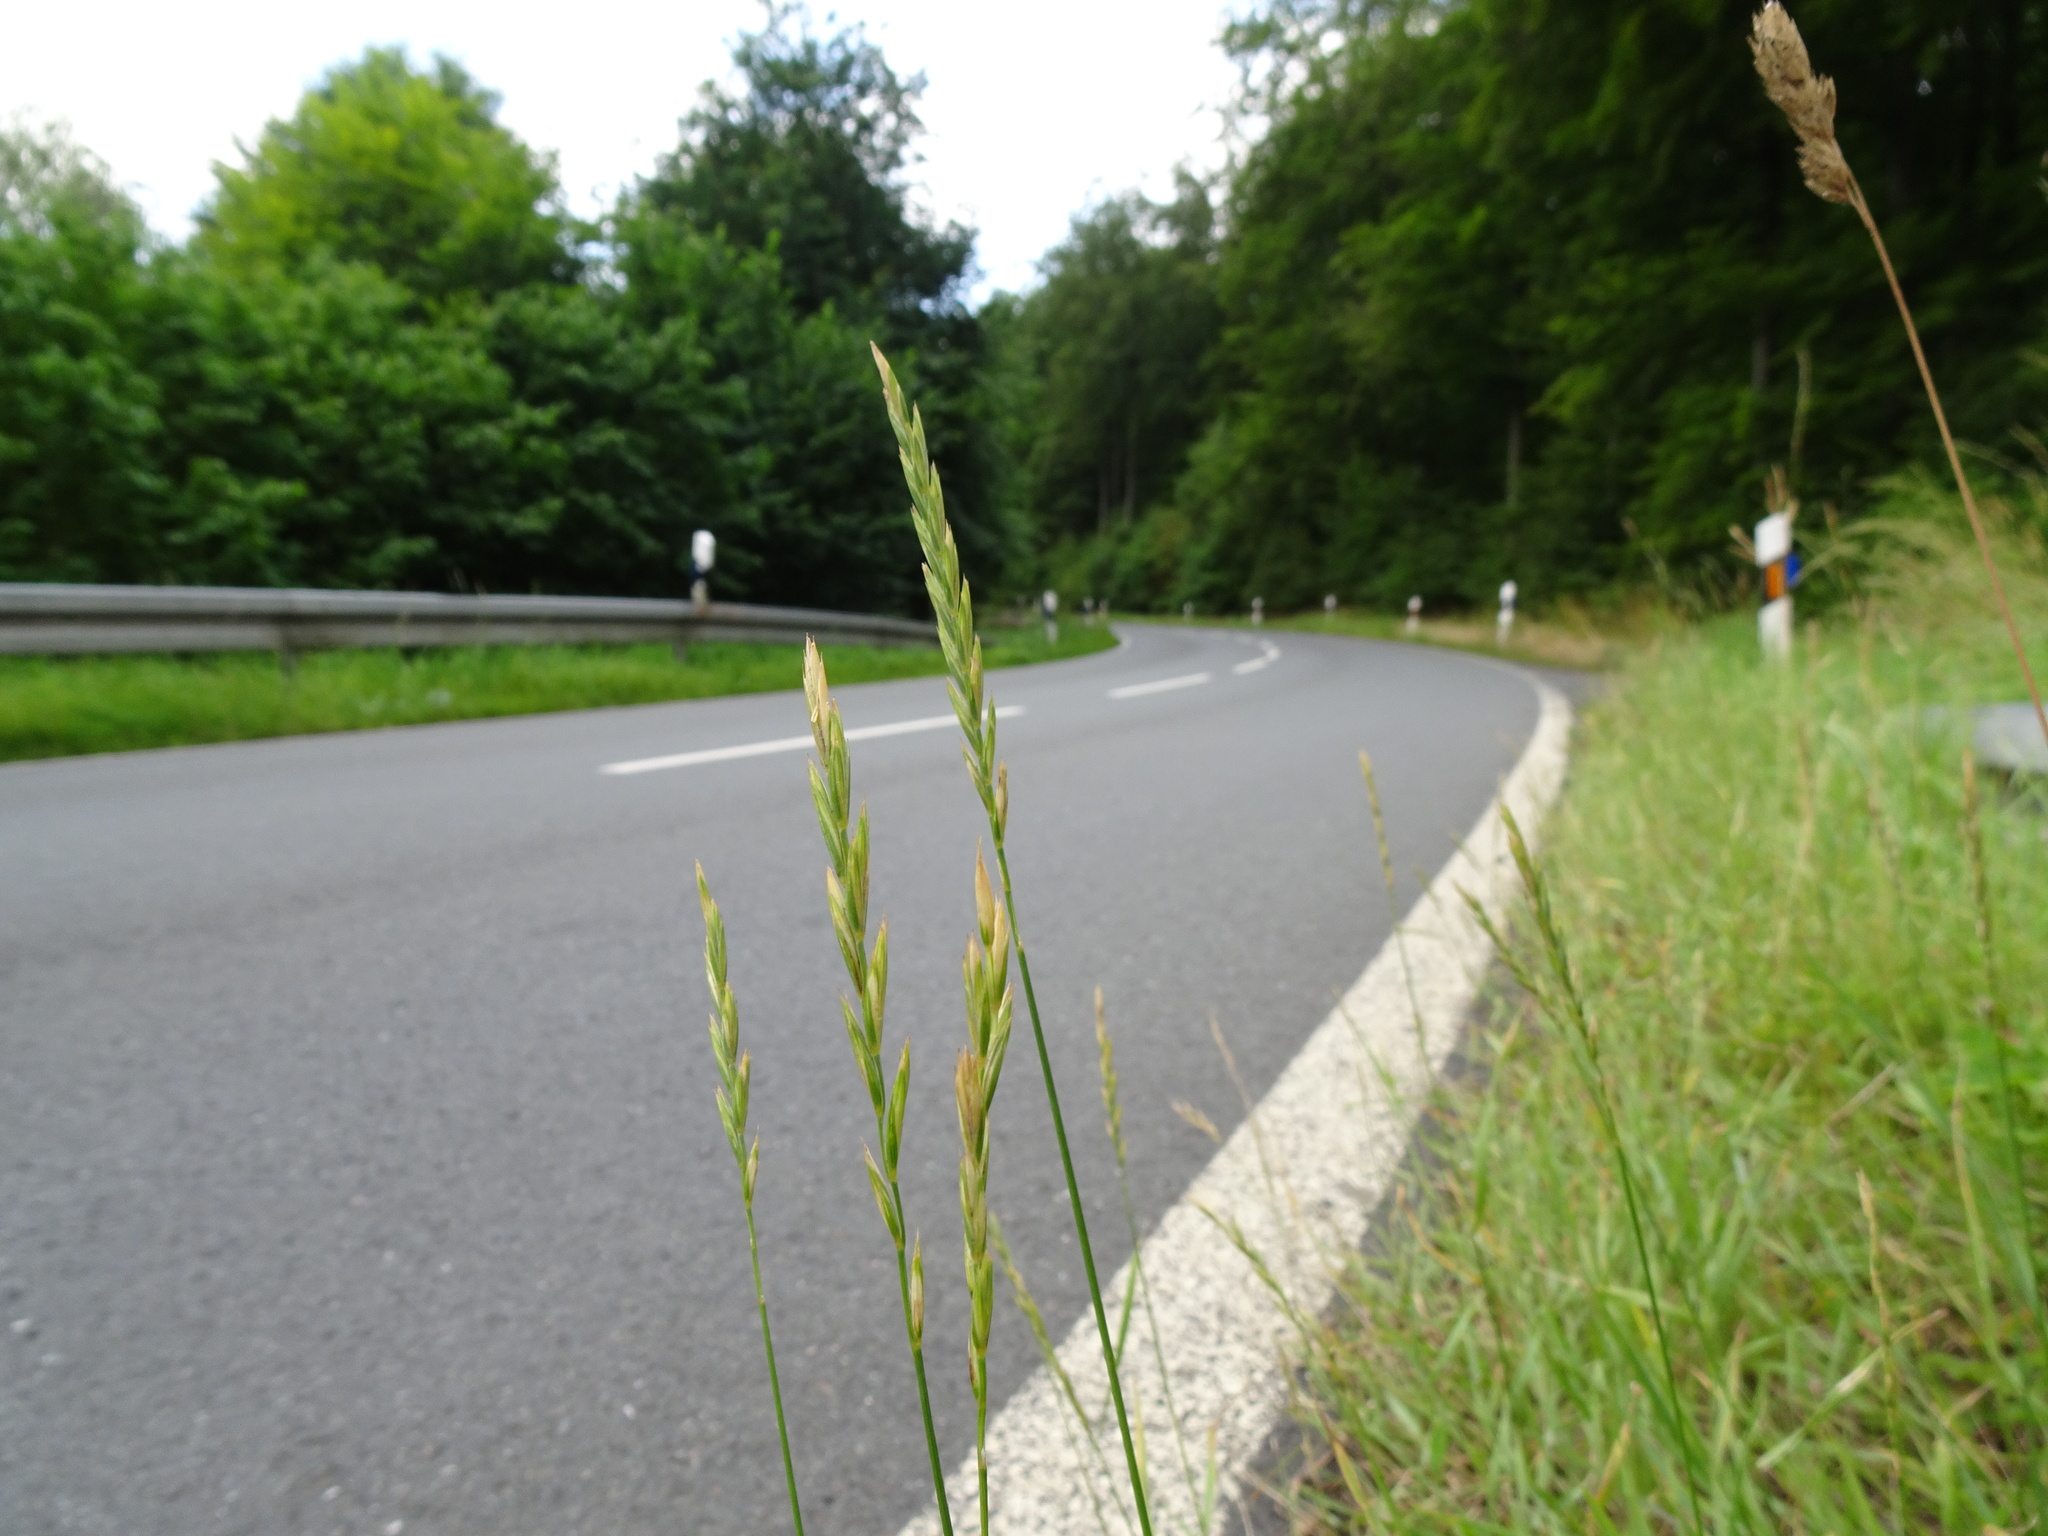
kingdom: Plantae
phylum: Tracheophyta
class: Liliopsida
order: Poales
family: Poaceae
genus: Elymus
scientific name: Elymus repens
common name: Quackgrass
